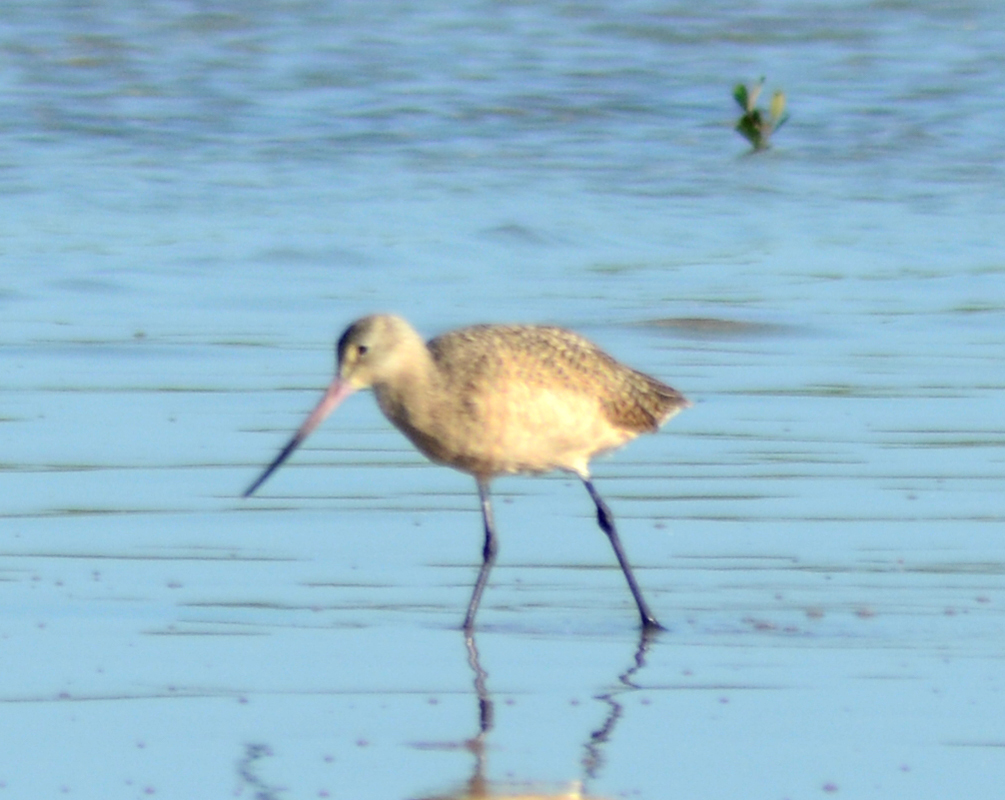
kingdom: Animalia
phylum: Chordata
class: Aves
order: Charadriiformes
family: Scolopacidae
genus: Limosa
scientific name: Limosa fedoa
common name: Marbled godwit
